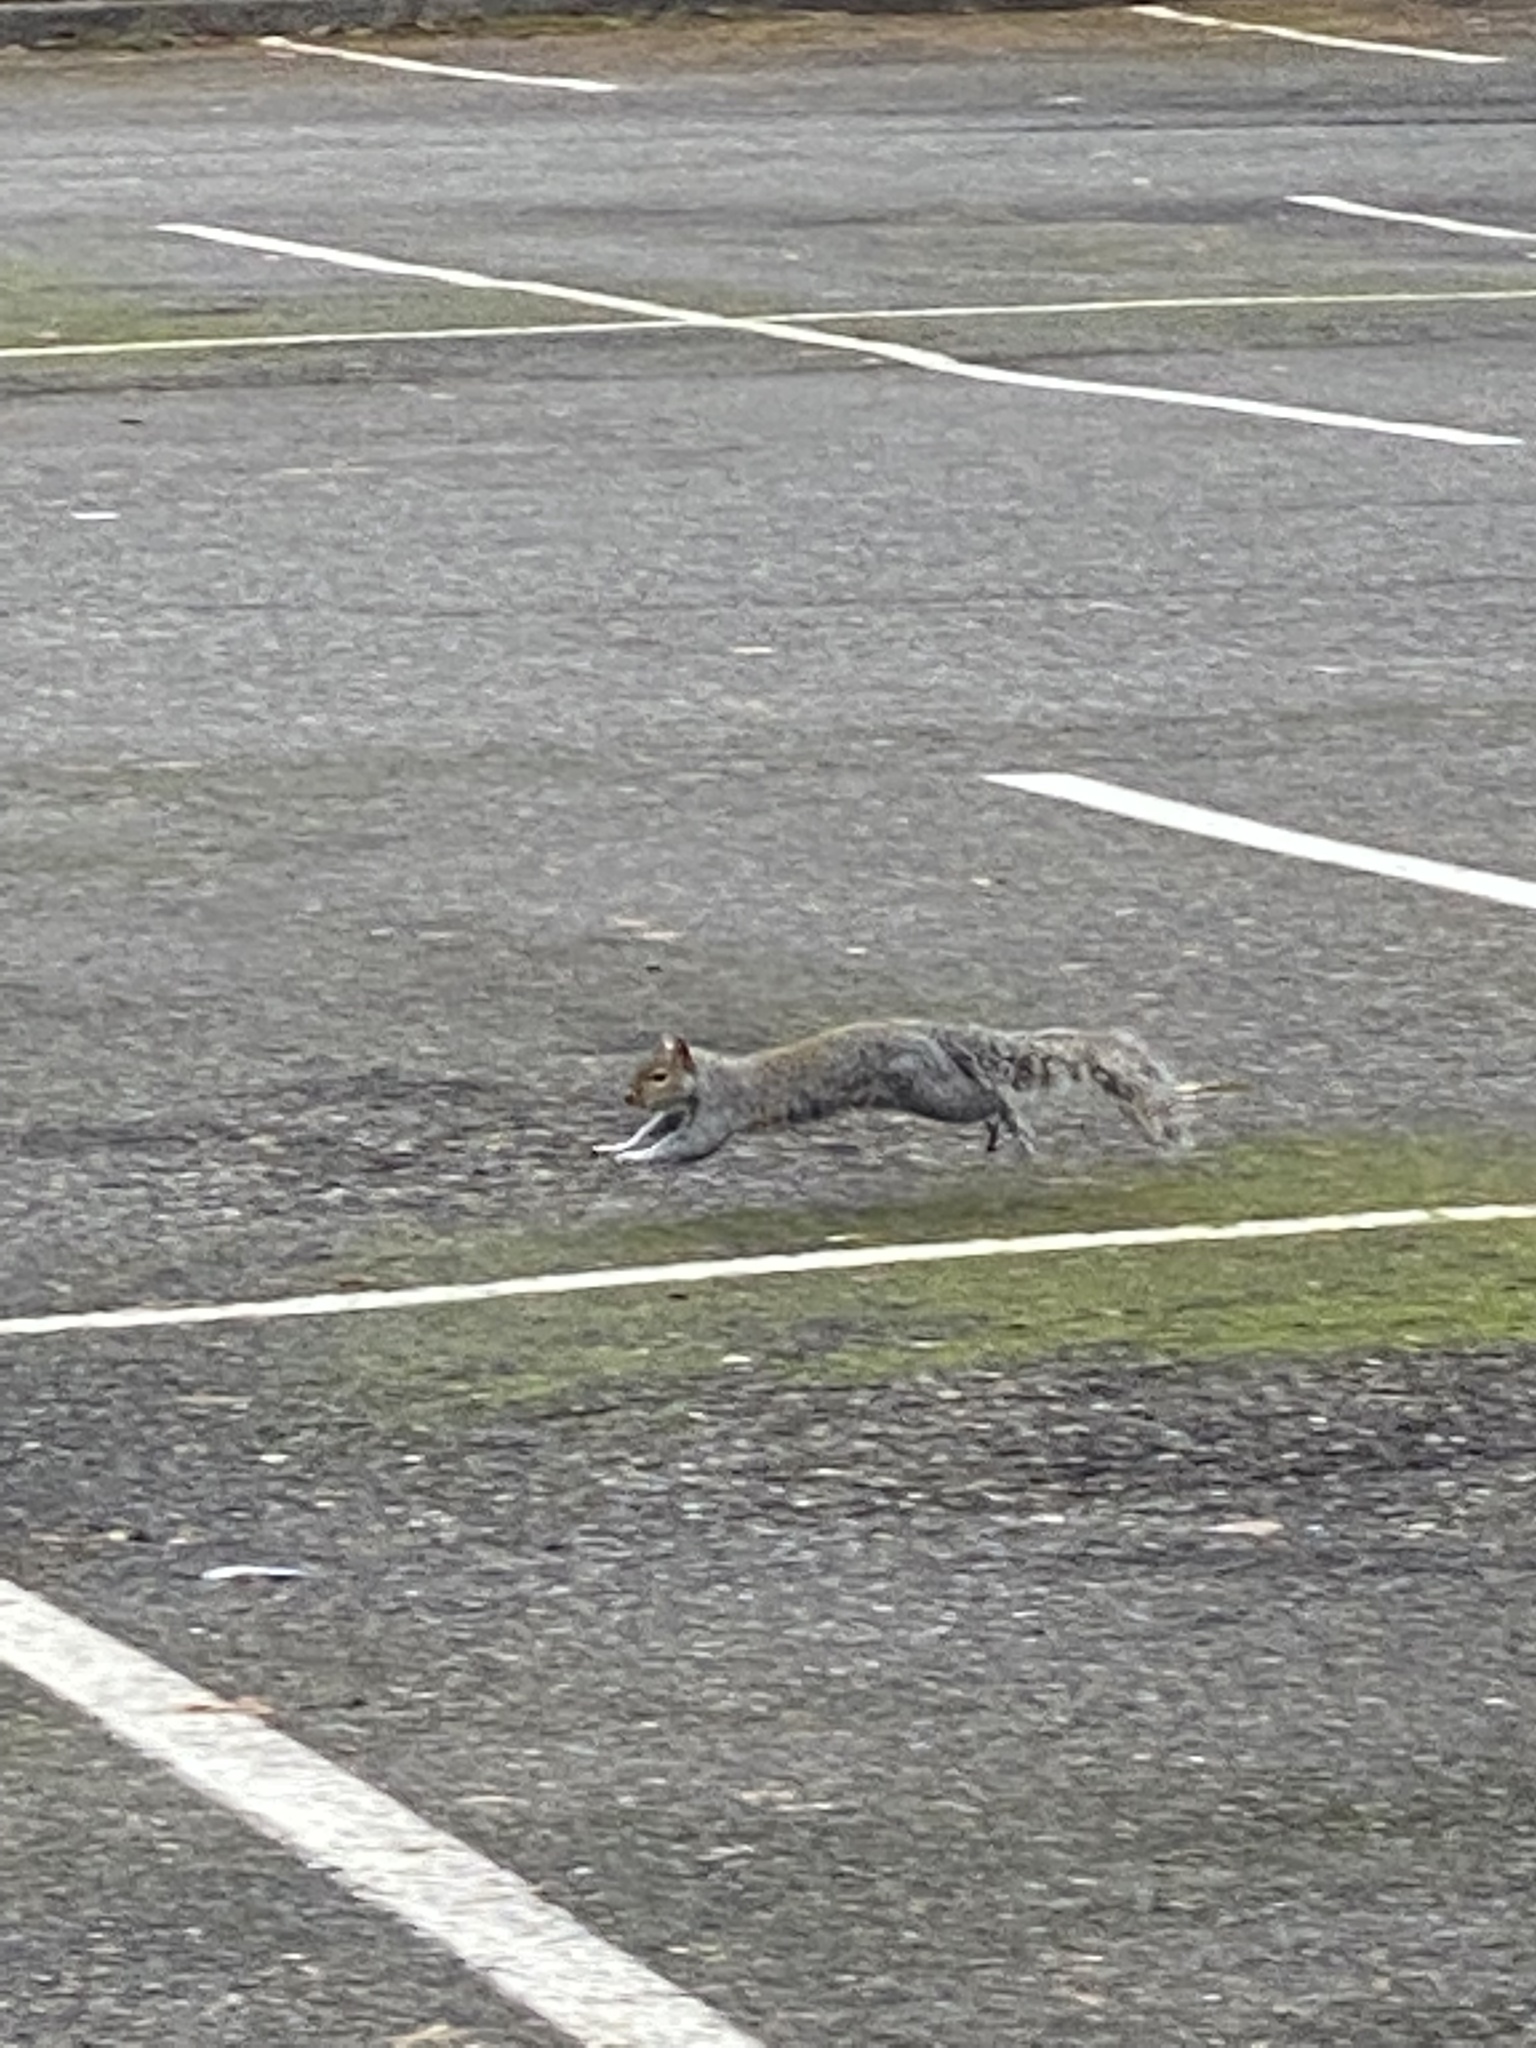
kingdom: Animalia
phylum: Chordata
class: Mammalia
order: Rodentia
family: Sciuridae
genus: Sciurus
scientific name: Sciurus carolinensis
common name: Eastern gray squirrel
